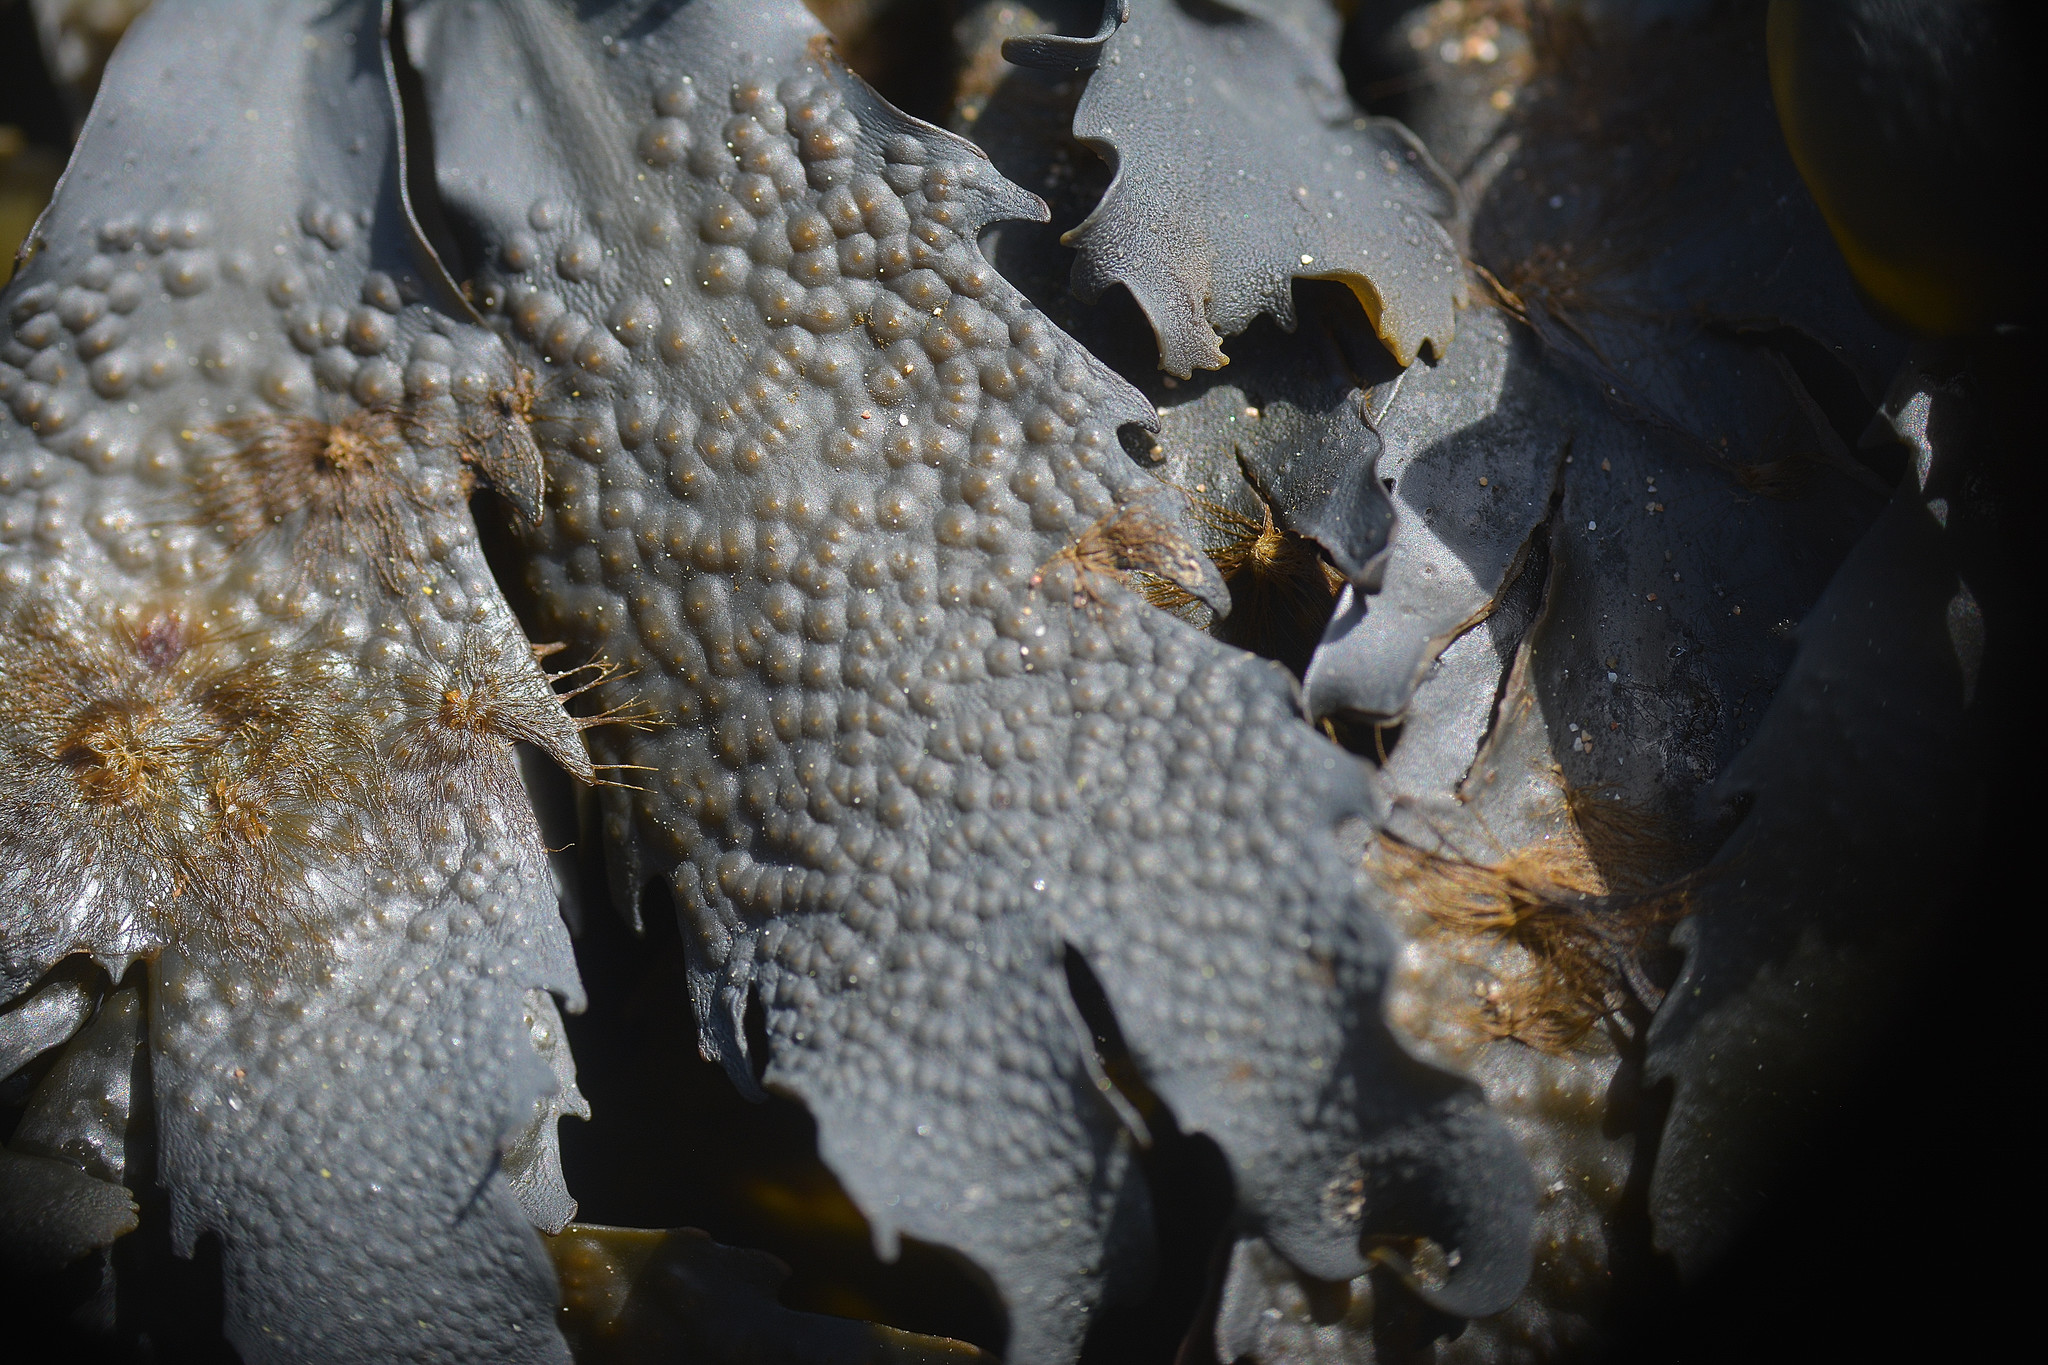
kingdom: Chromista
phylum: Ochrophyta
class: Phaeophyceae
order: Fucales
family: Fucaceae
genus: Fucus
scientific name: Fucus serratus
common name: Toothed wrack
